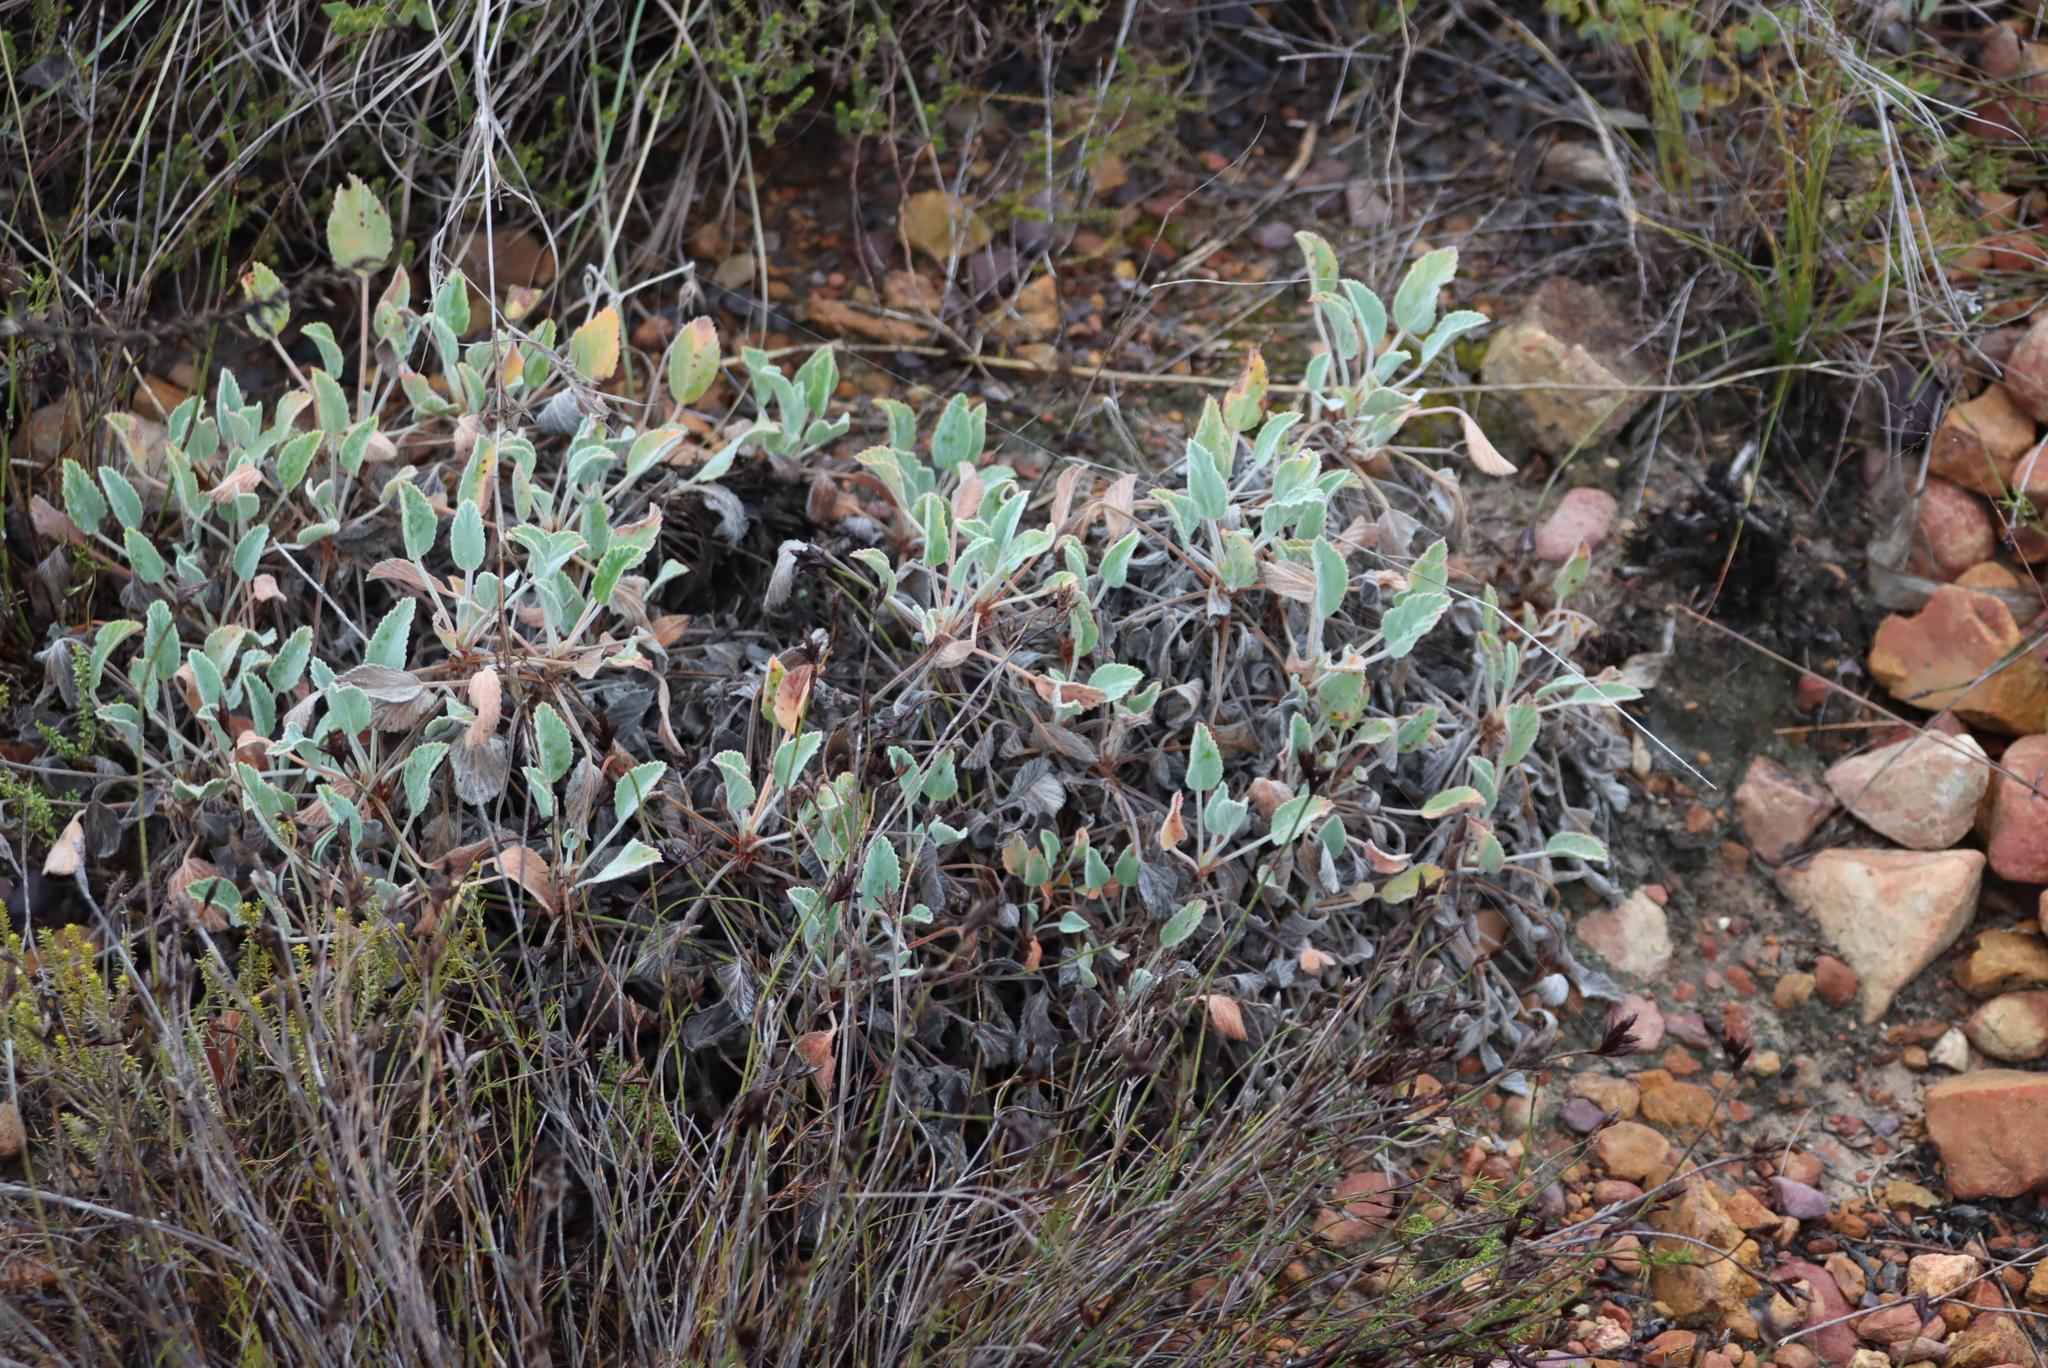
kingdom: Plantae
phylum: Tracheophyta
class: Magnoliopsida
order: Geraniales
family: Geraniaceae
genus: Pelargonium
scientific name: Pelargonium ovale
